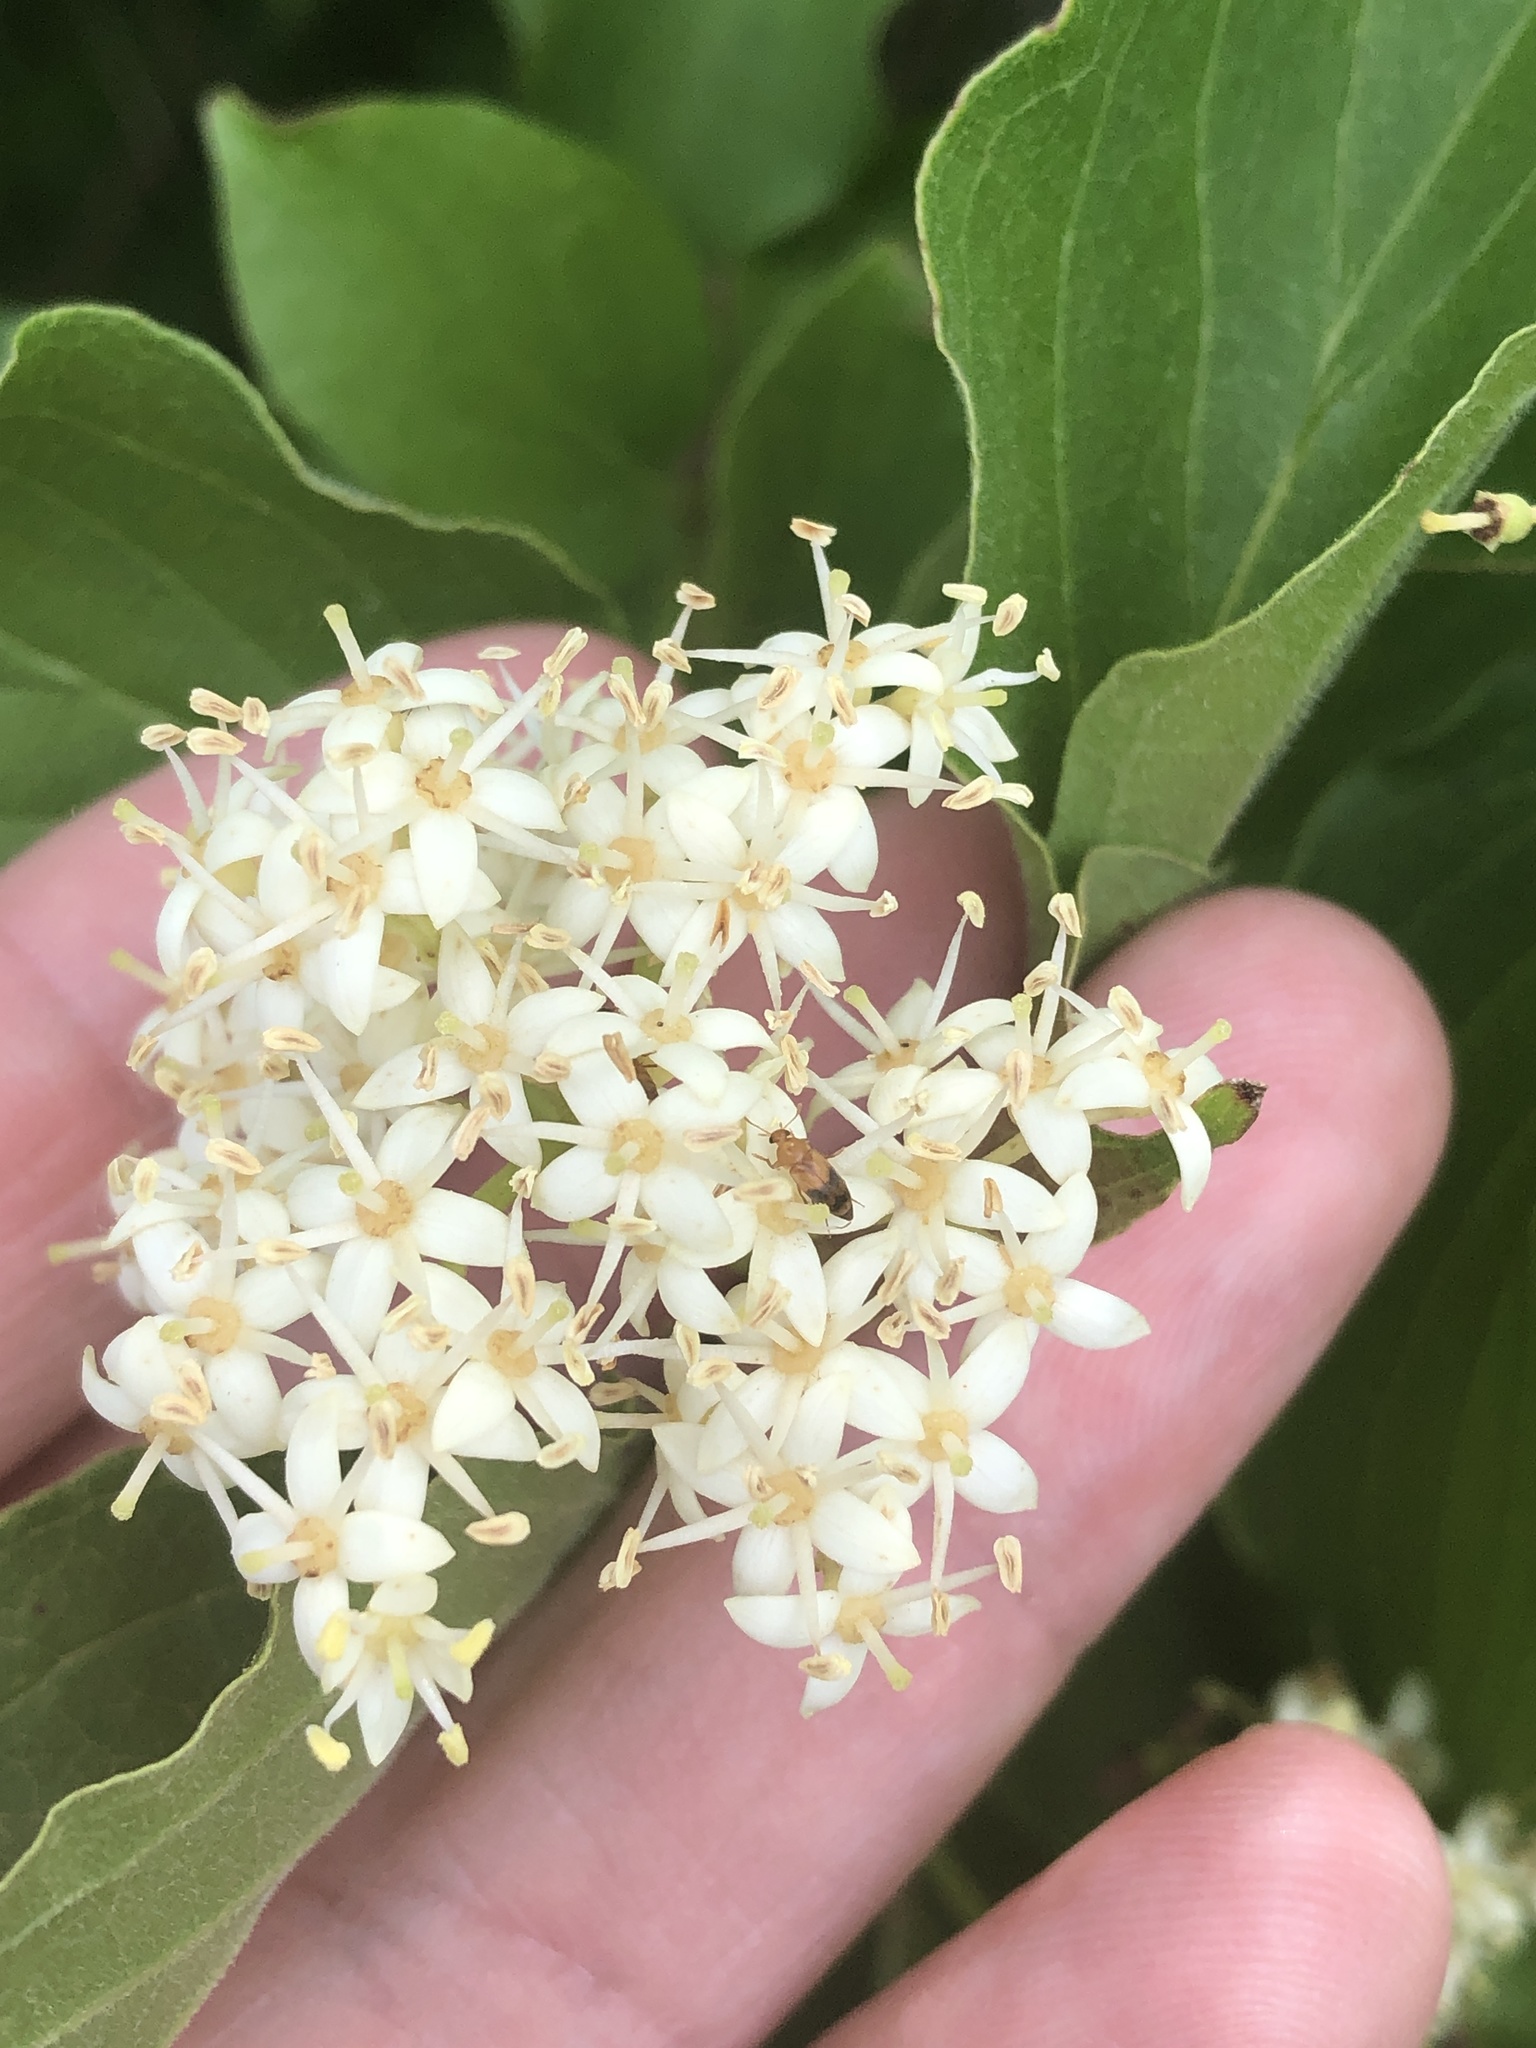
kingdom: Plantae
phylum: Tracheophyta
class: Magnoliopsida
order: Cornales
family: Cornaceae
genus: Cornus
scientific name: Cornus drummondii
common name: Rough-leaf dogwood
